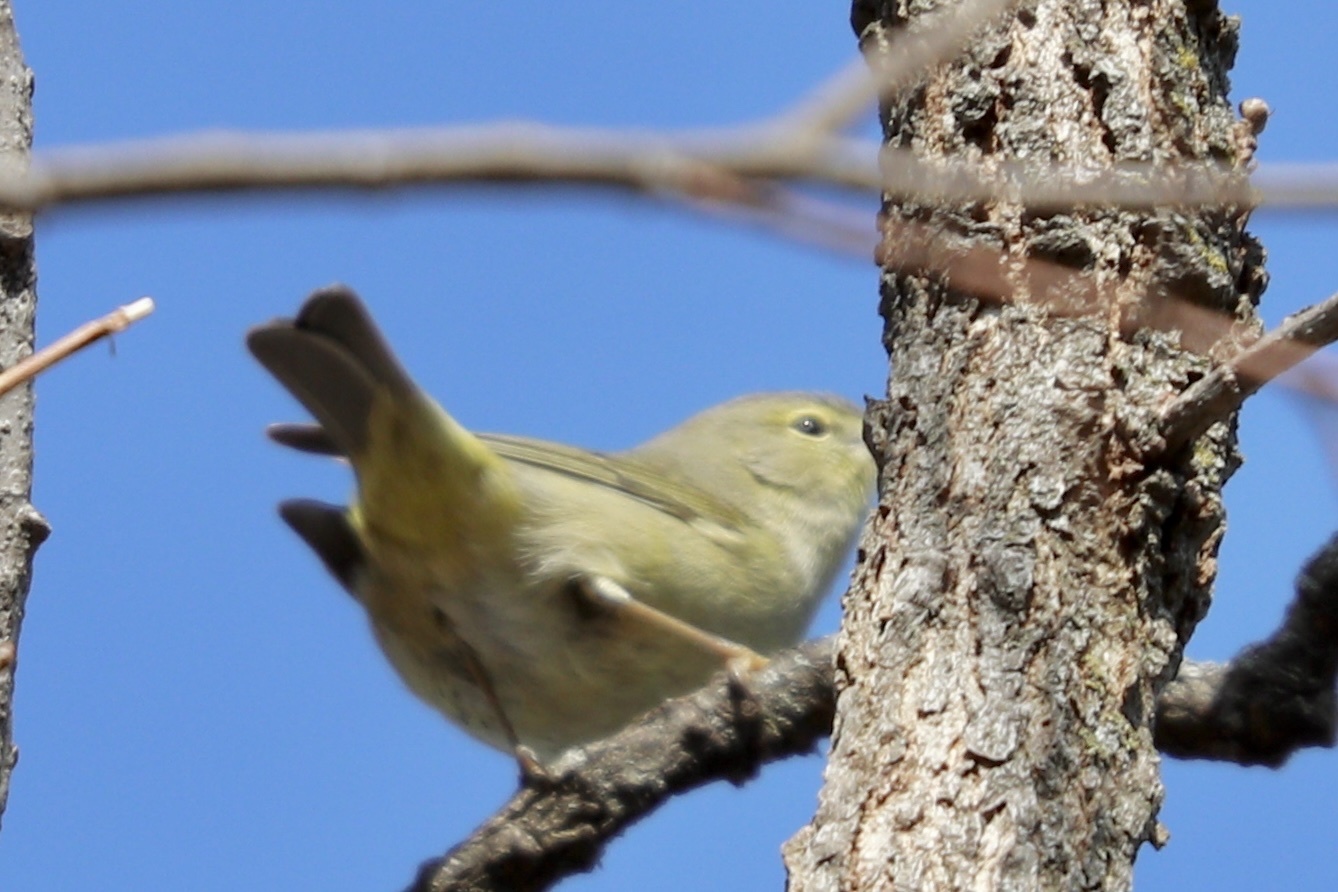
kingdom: Animalia
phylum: Chordata
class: Aves
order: Passeriformes
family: Parulidae
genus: Leiothlypis
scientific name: Leiothlypis celata
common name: Orange-crowned warbler
